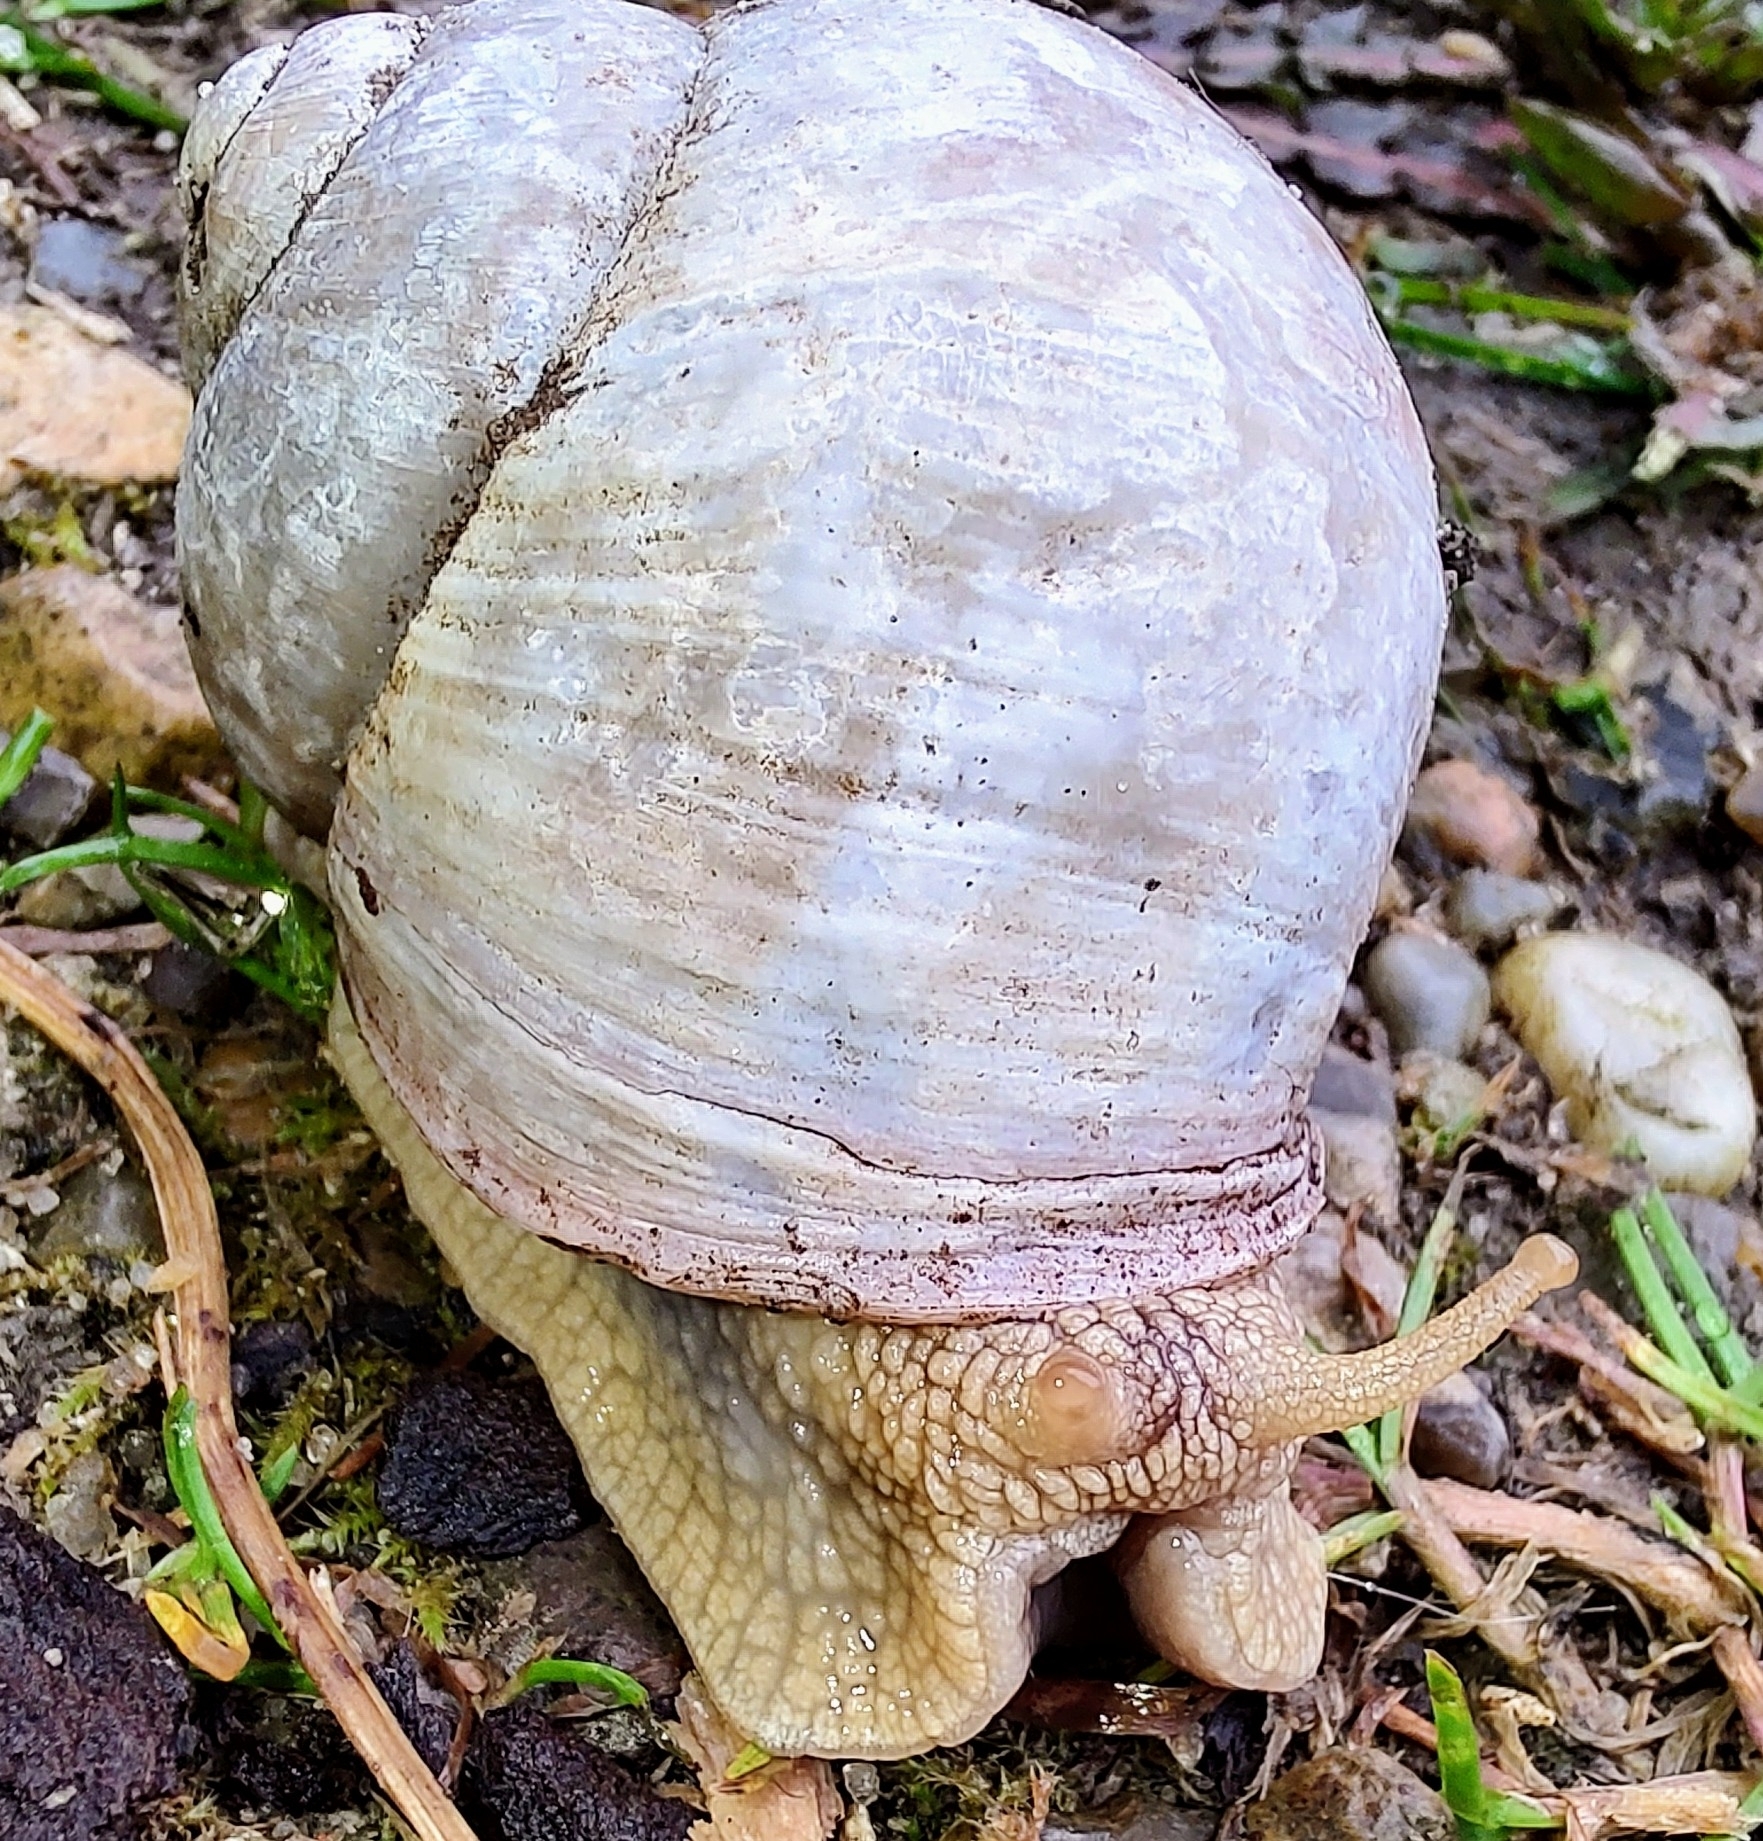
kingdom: Animalia
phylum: Mollusca
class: Gastropoda
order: Stylommatophora
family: Helicidae
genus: Helix
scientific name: Helix pomatia
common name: Roman snail
